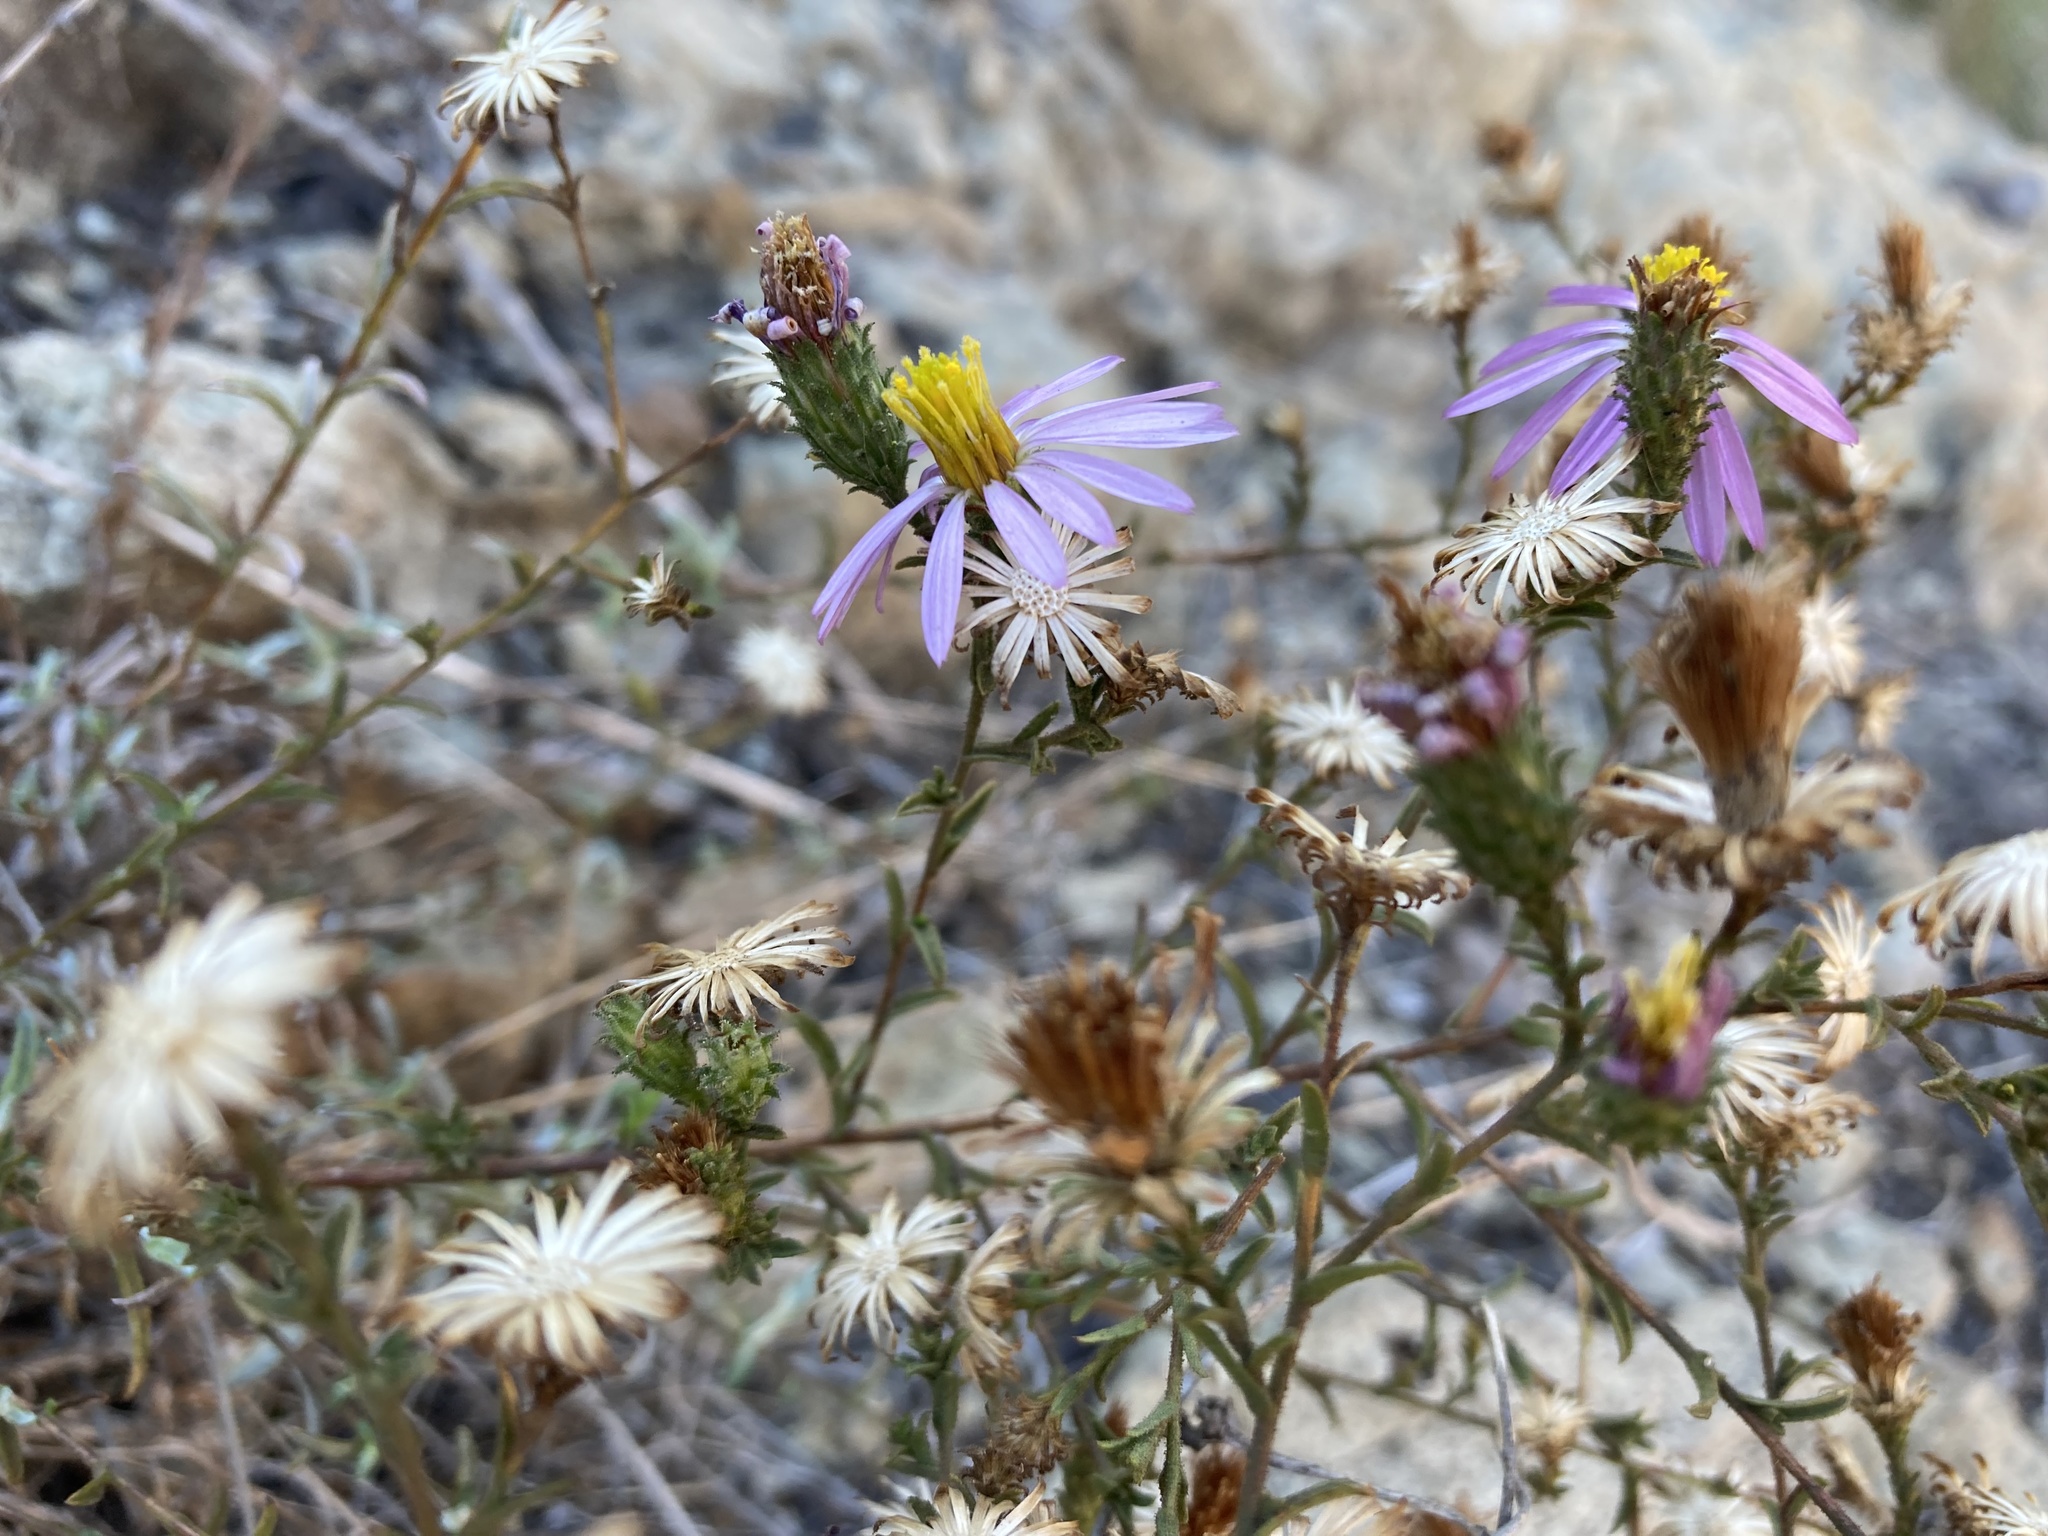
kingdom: Plantae
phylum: Tracheophyta
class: Magnoliopsida
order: Asterales
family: Asteraceae
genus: Corethrogyne
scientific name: Corethrogyne filaginifolia
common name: Sand-aster
